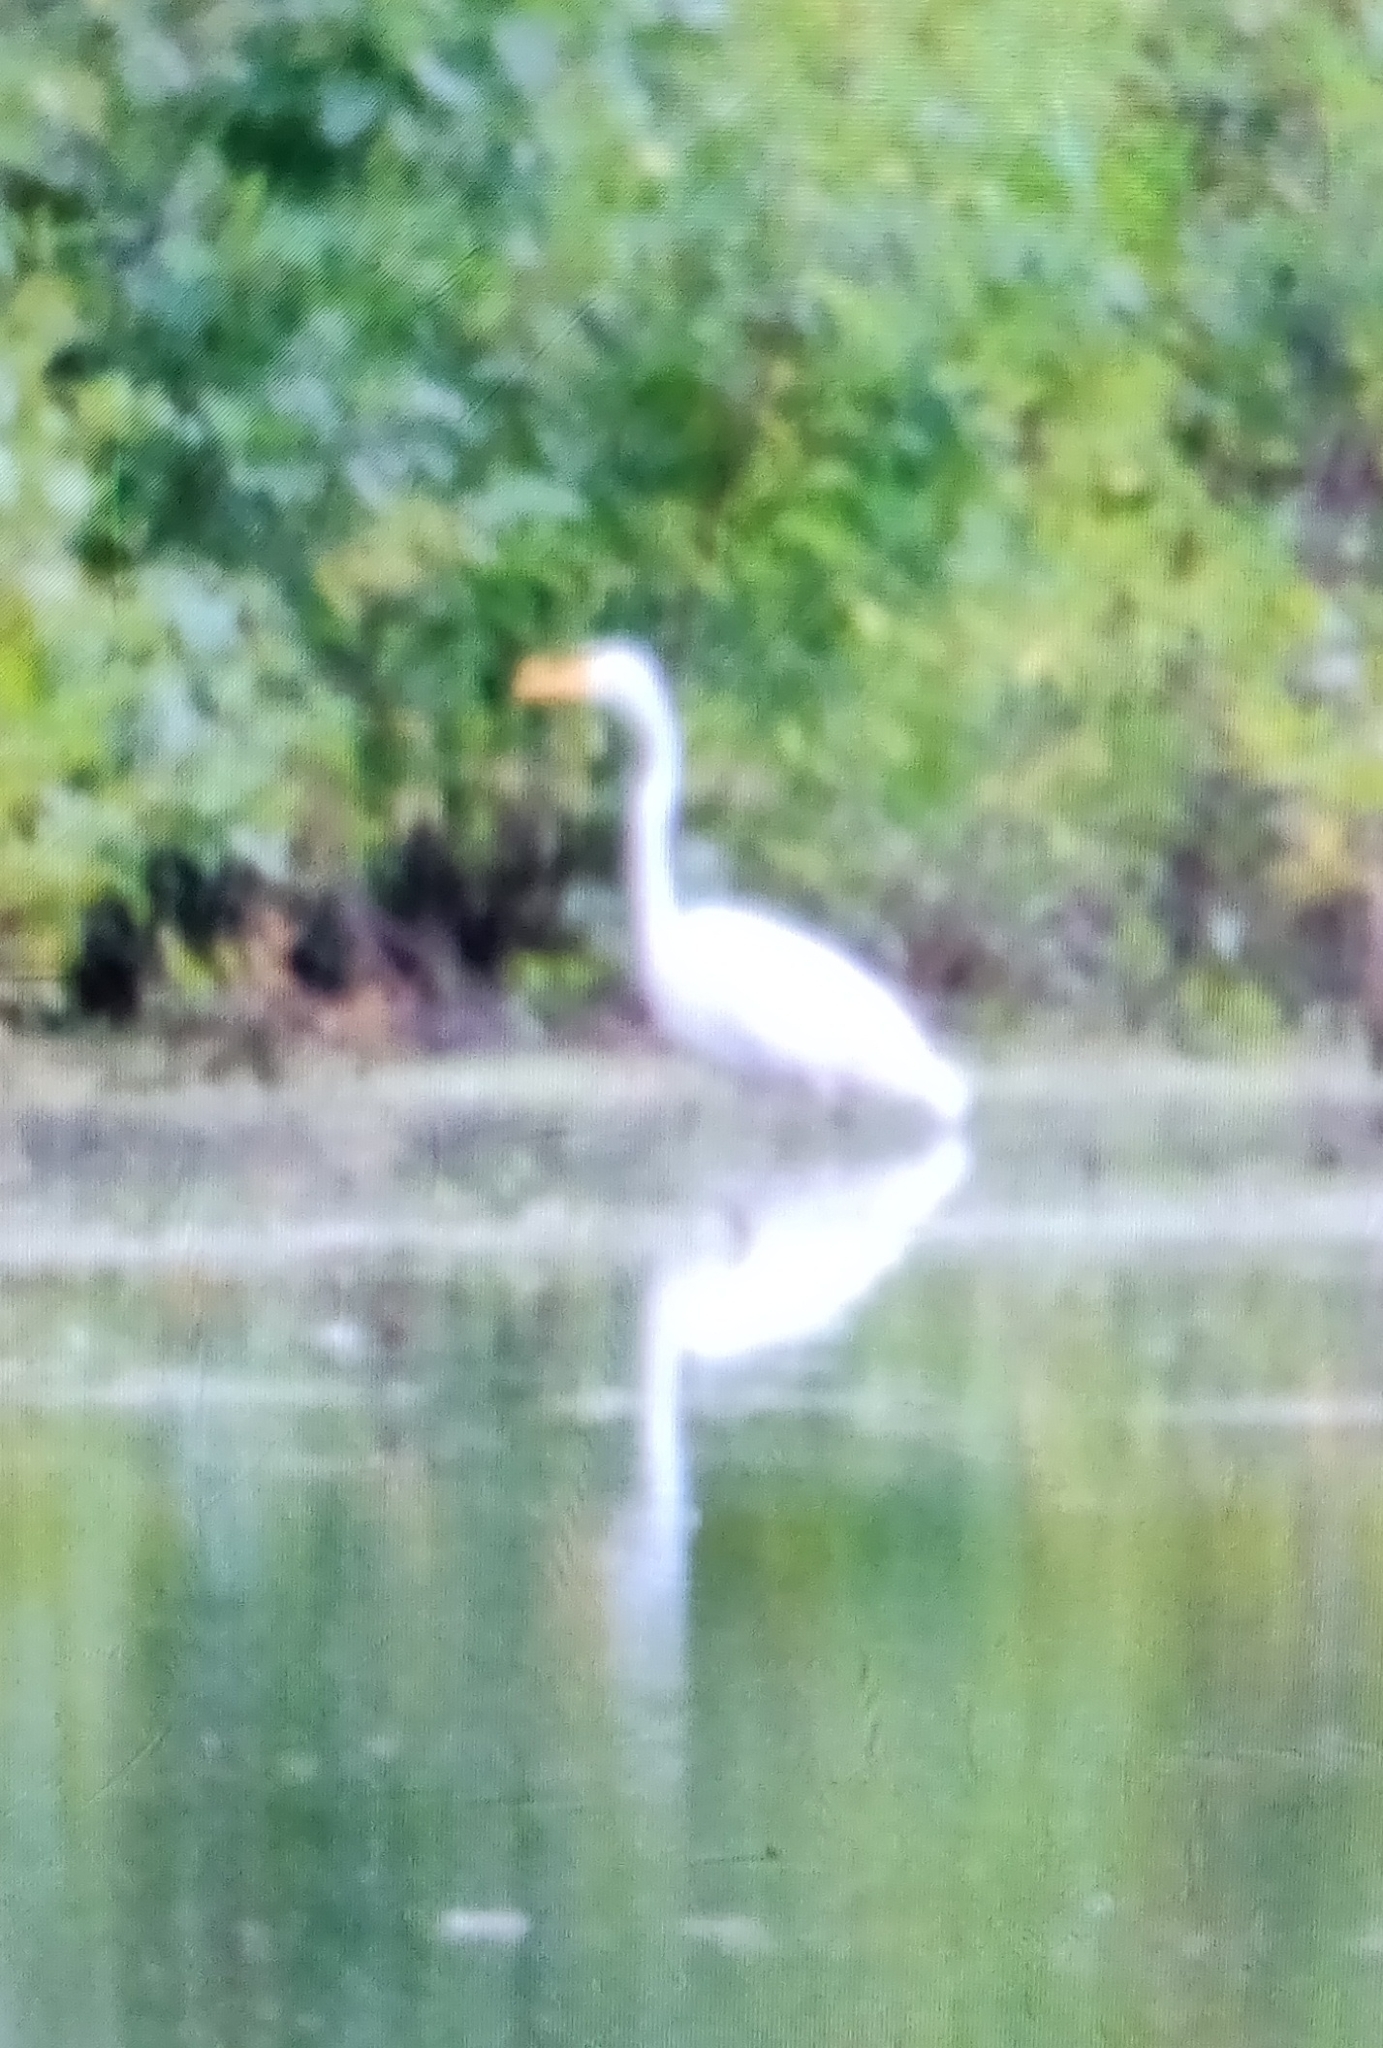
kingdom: Animalia
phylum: Chordata
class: Aves
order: Pelecaniformes
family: Ardeidae
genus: Ardea
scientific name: Ardea alba
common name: Great egret
